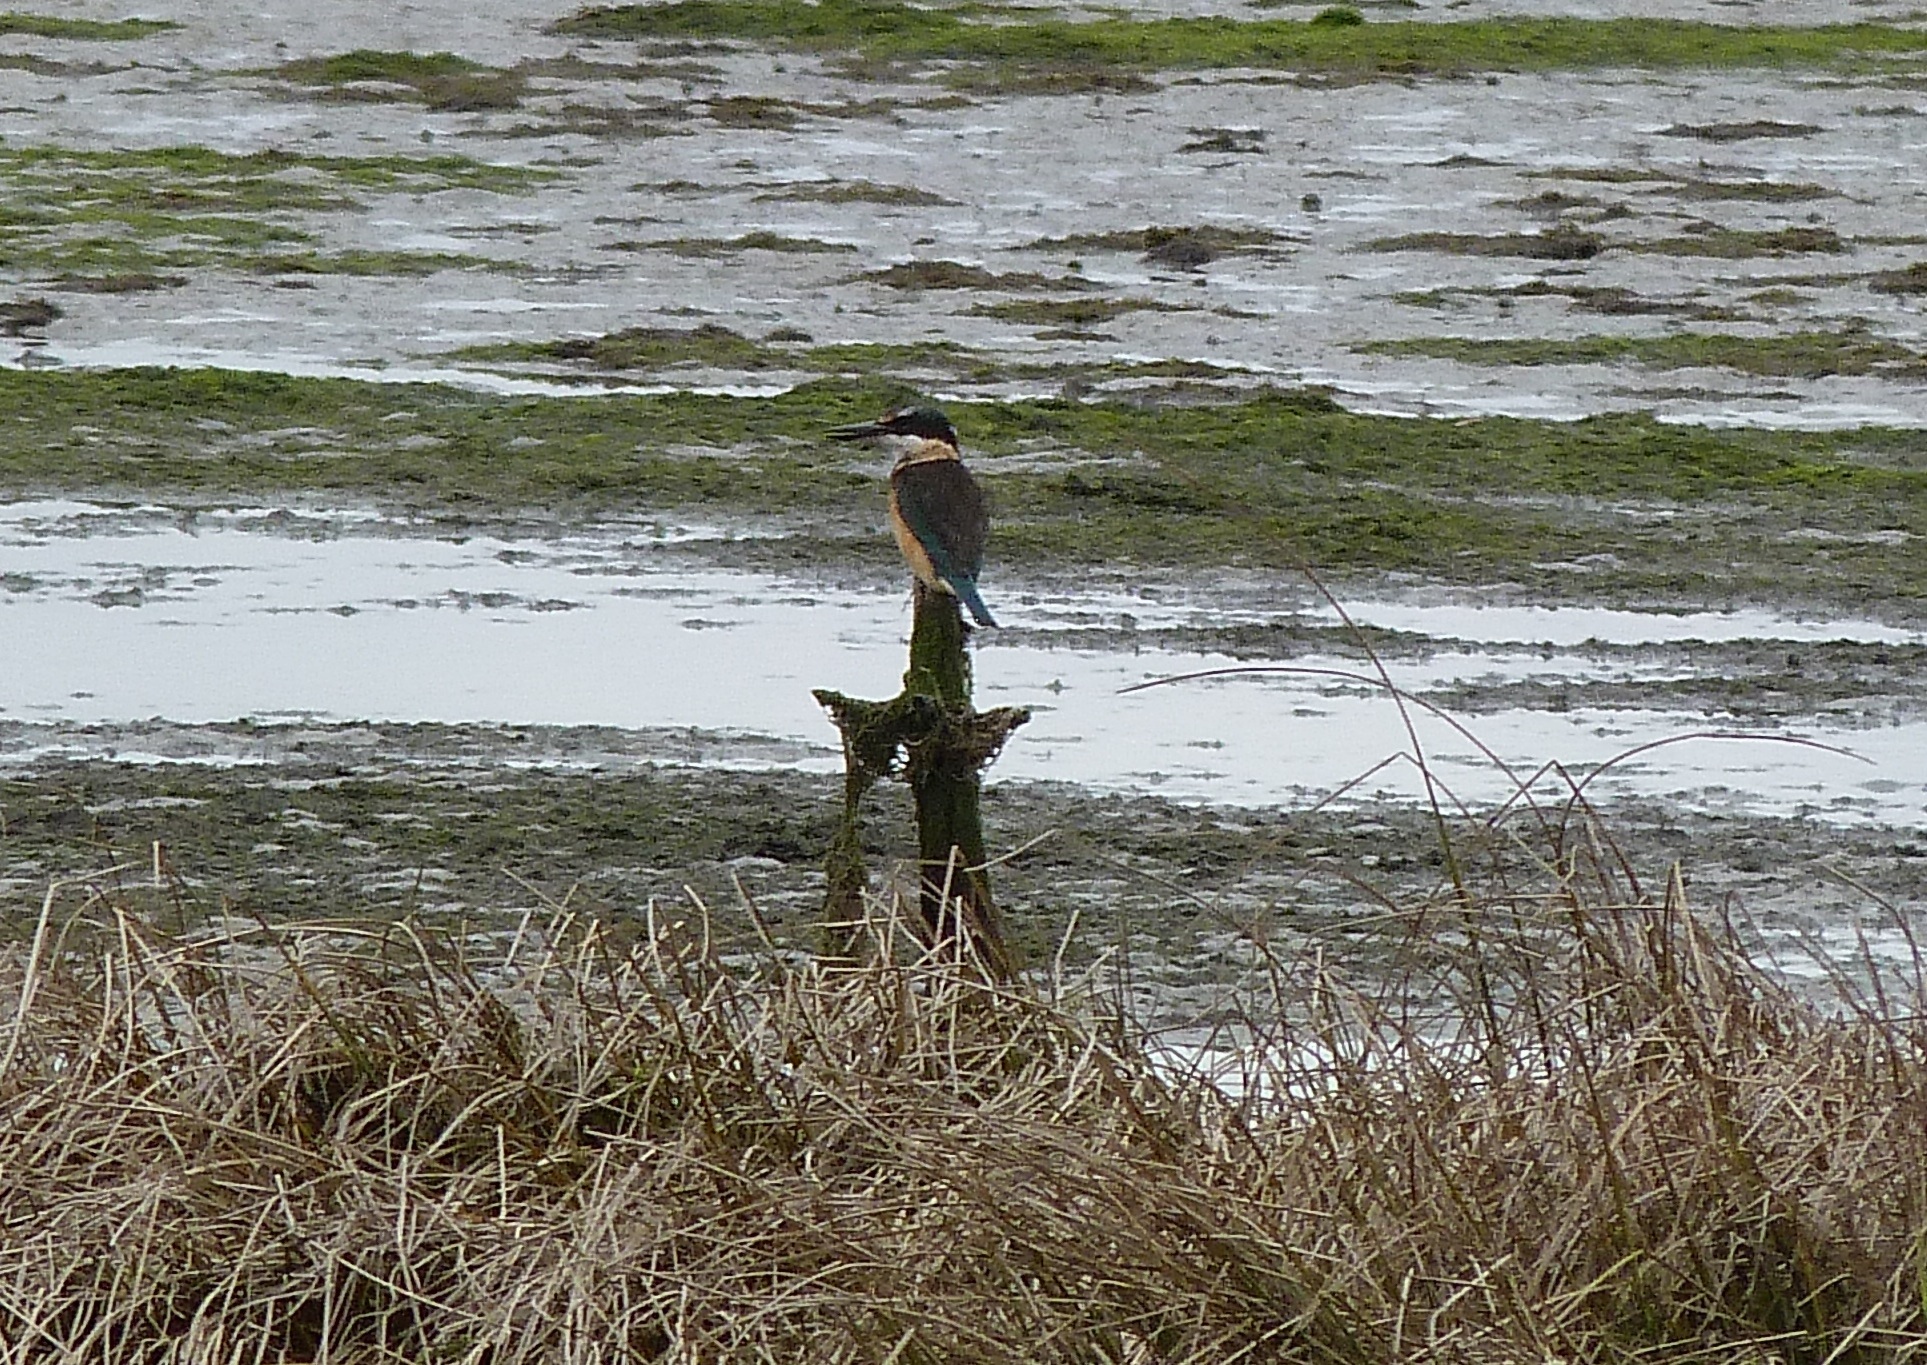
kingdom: Animalia
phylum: Chordata
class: Aves
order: Coraciiformes
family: Alcedinidae
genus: Todiramphus
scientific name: Todiramphus sanctus
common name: Sacred kingfisher
